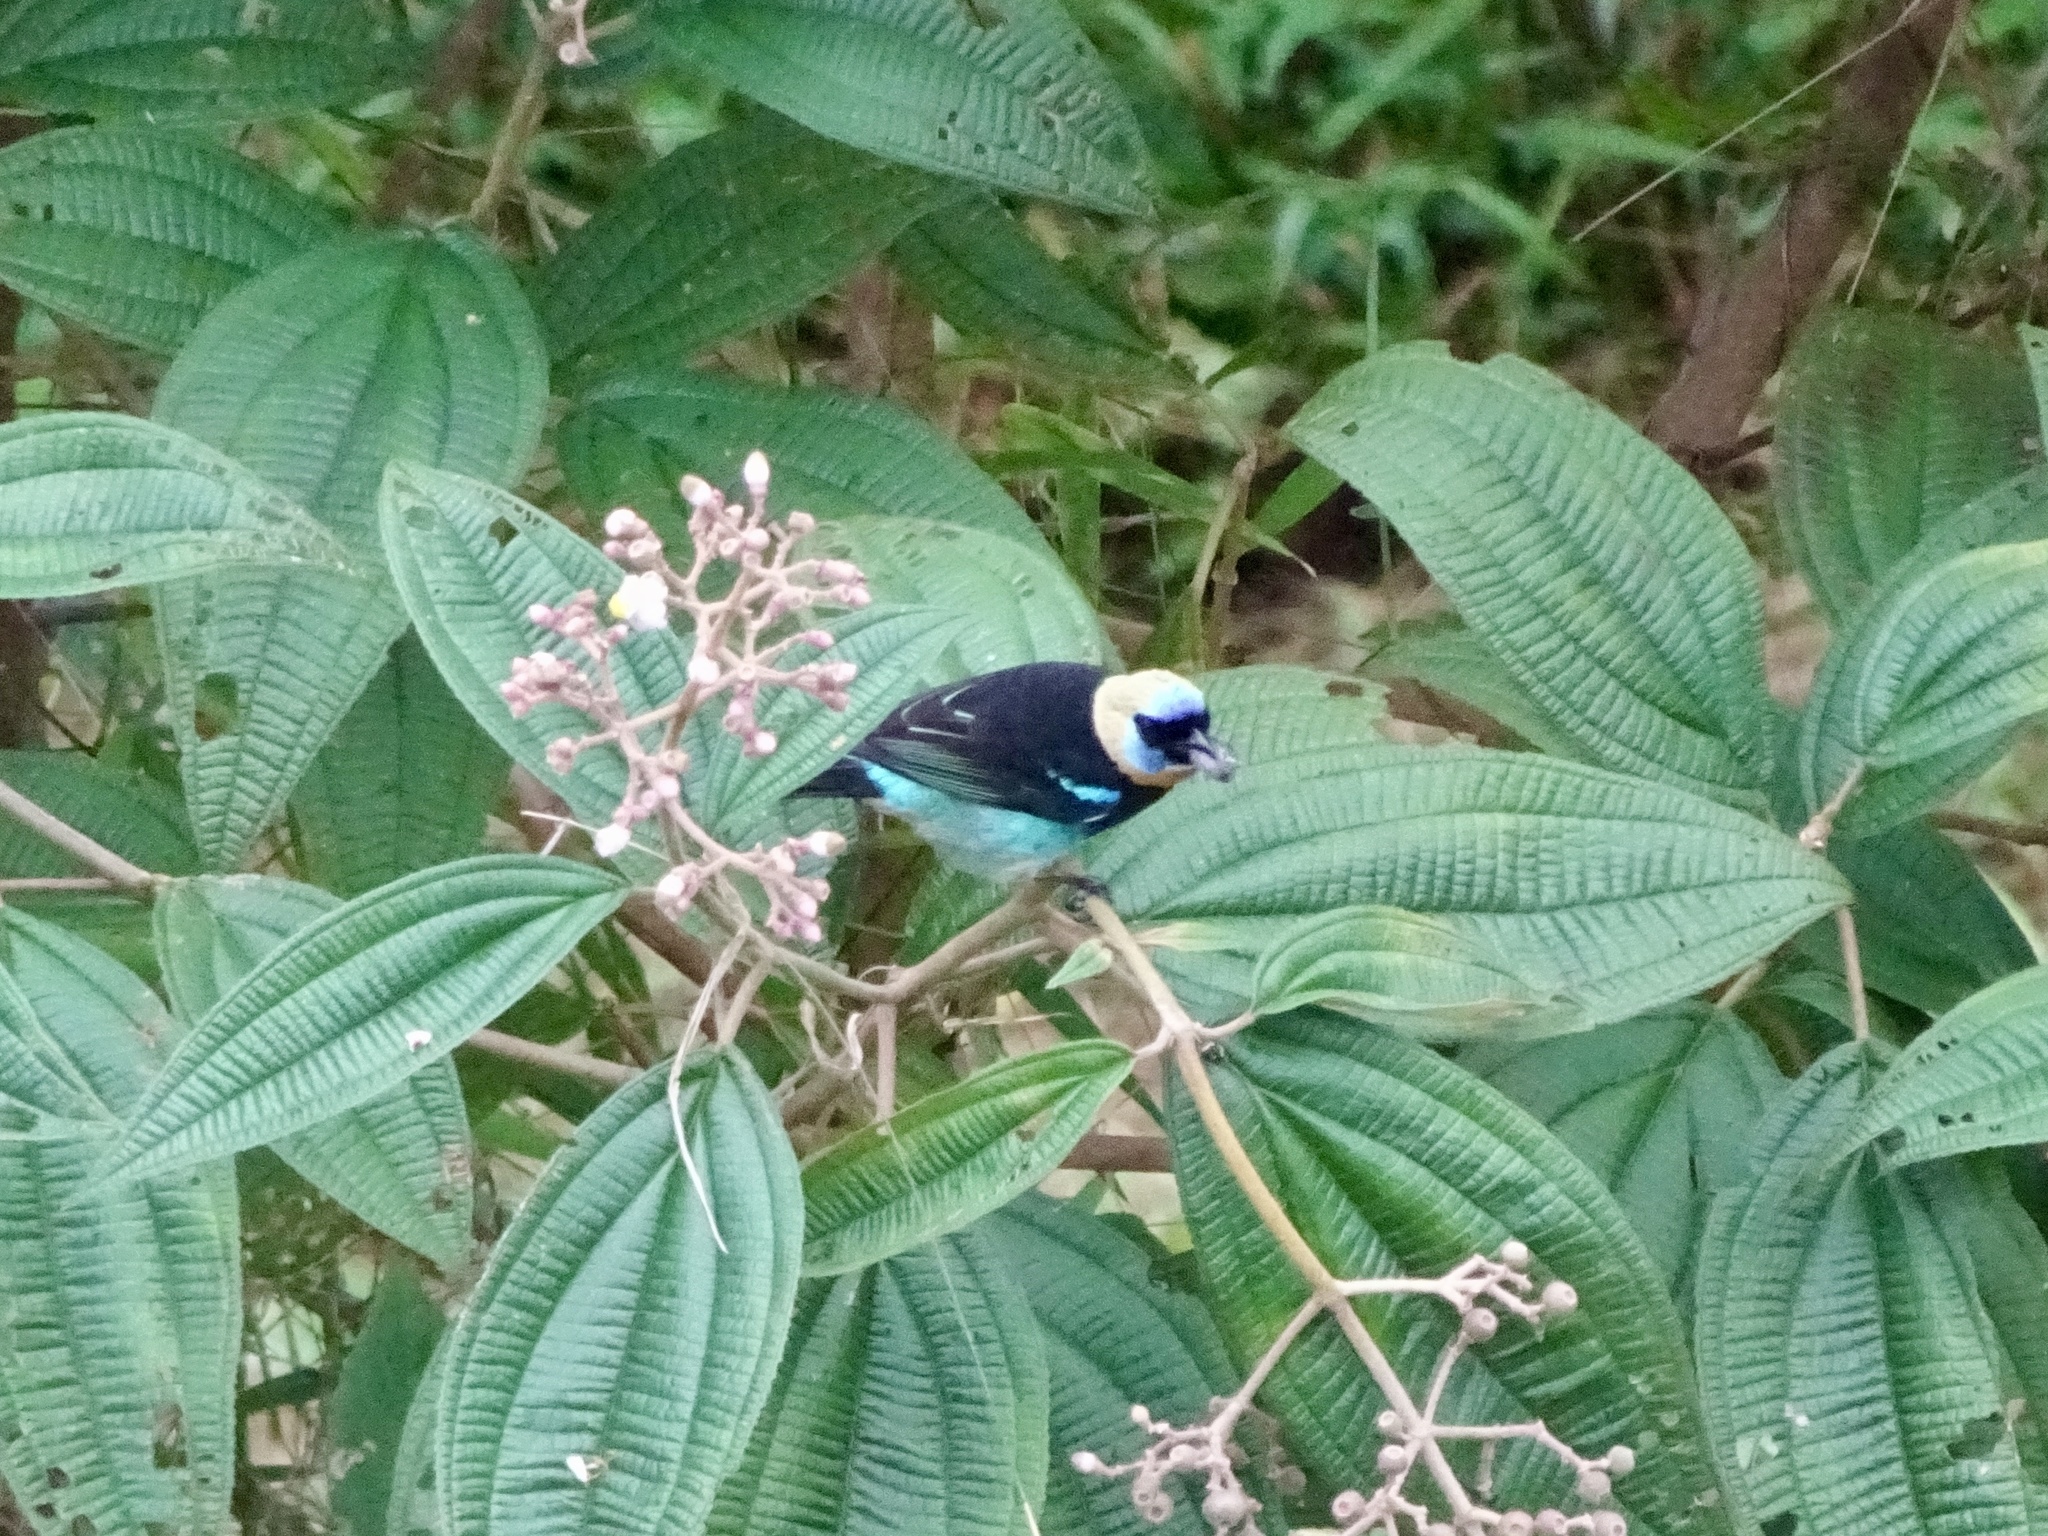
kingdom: Animalia
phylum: Chordata
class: Aves
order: Passeriformes
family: Thraupidae
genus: Stilpnia
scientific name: Stilpnia larvata
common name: Golden-hooded tanager
